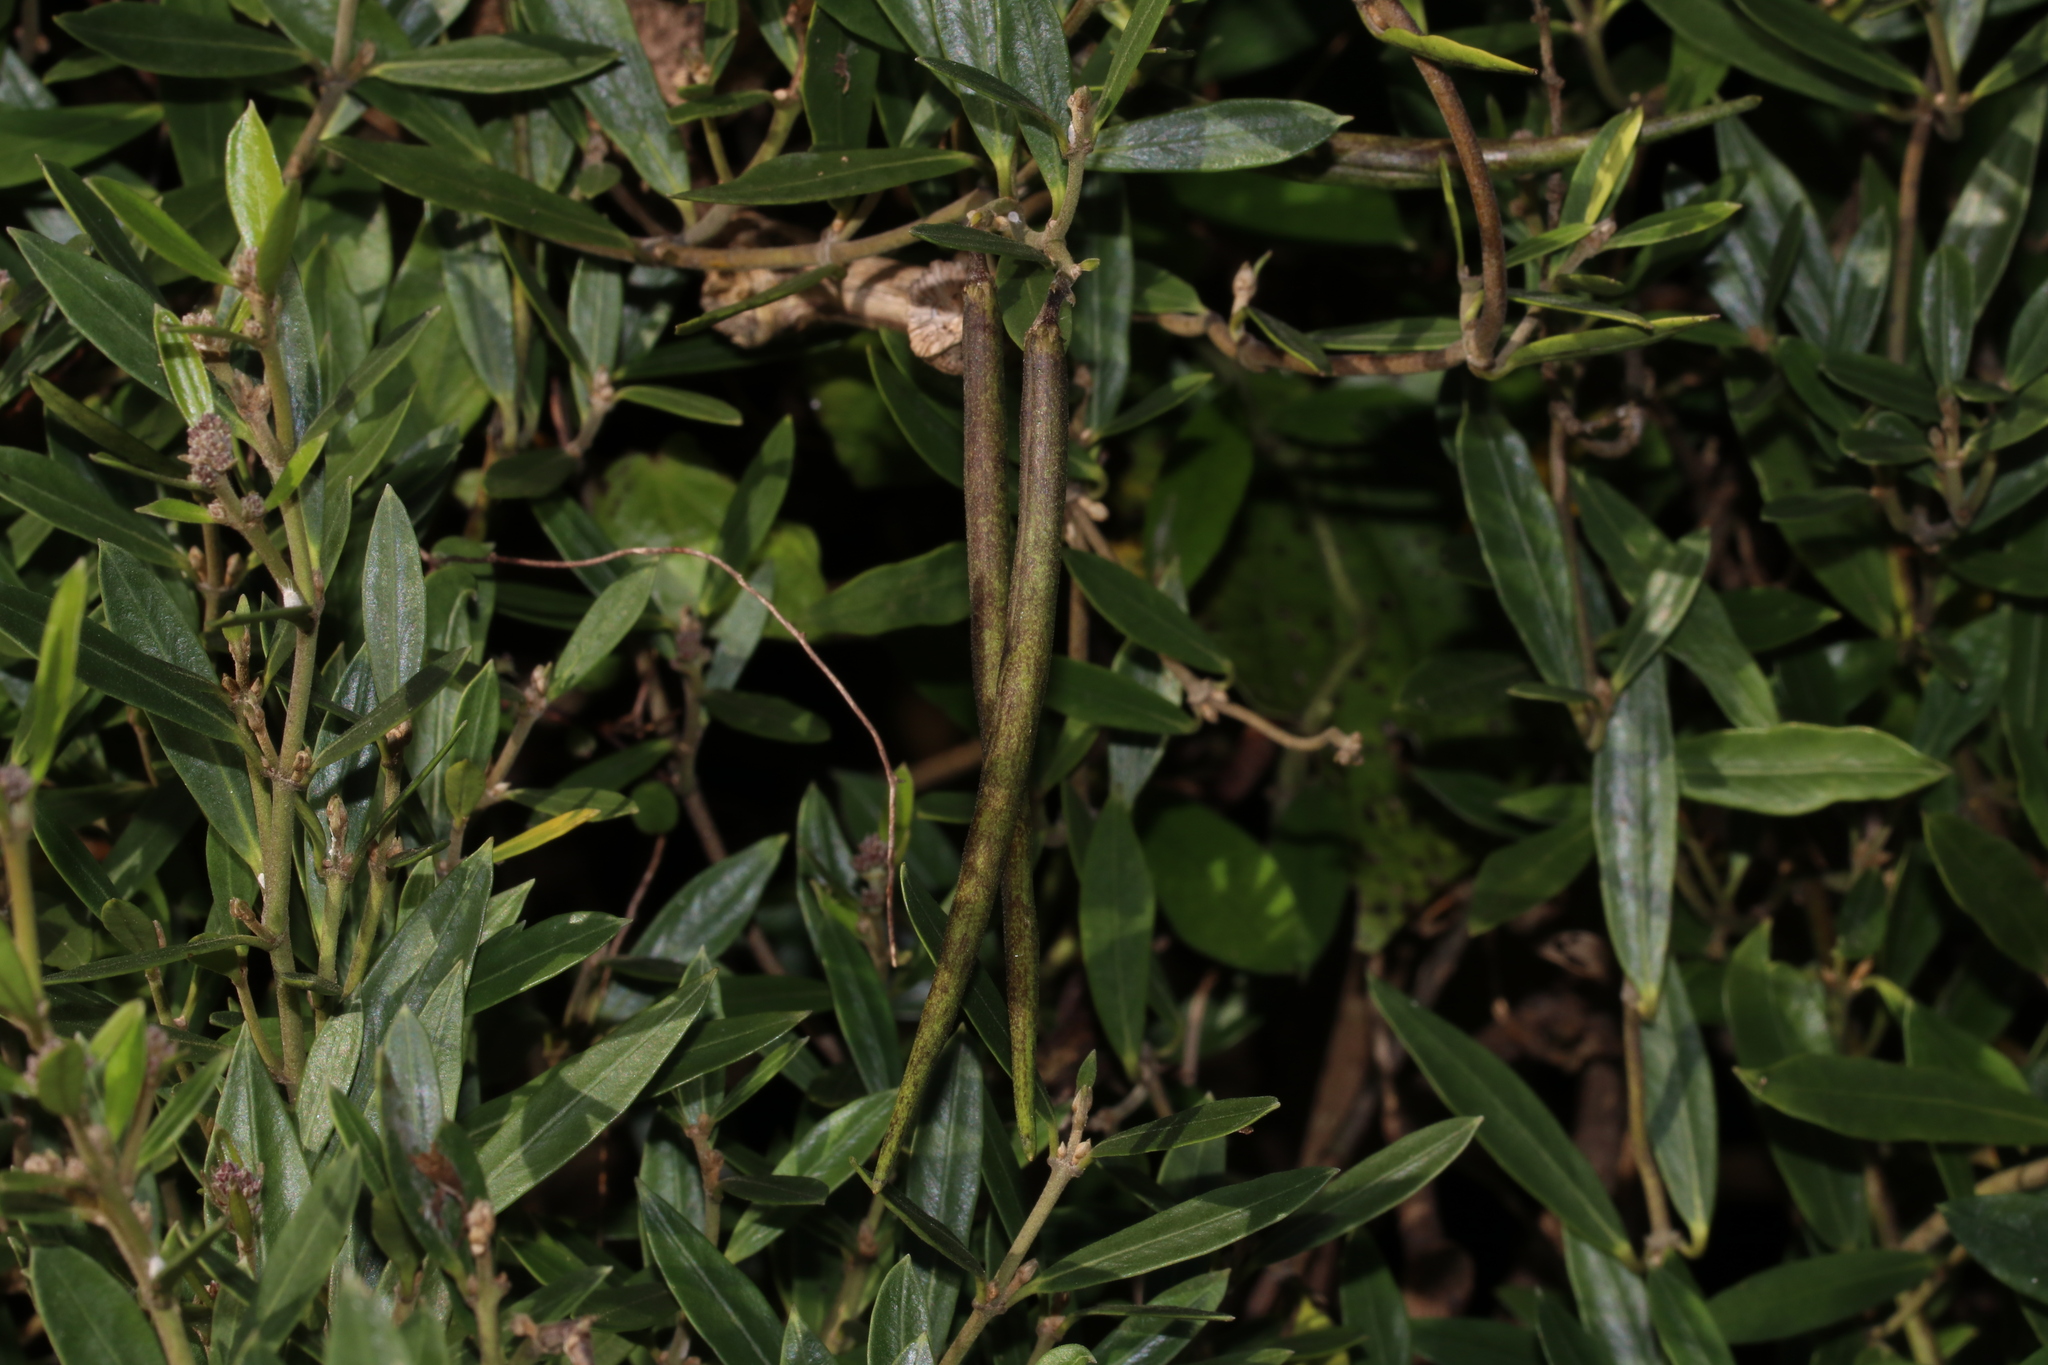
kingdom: Plantae
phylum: Tracheophyta
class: Magnoliopsida
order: Gentianales
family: Apocynaceae
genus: Parsonsia
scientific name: Parsonsia heterophylla
